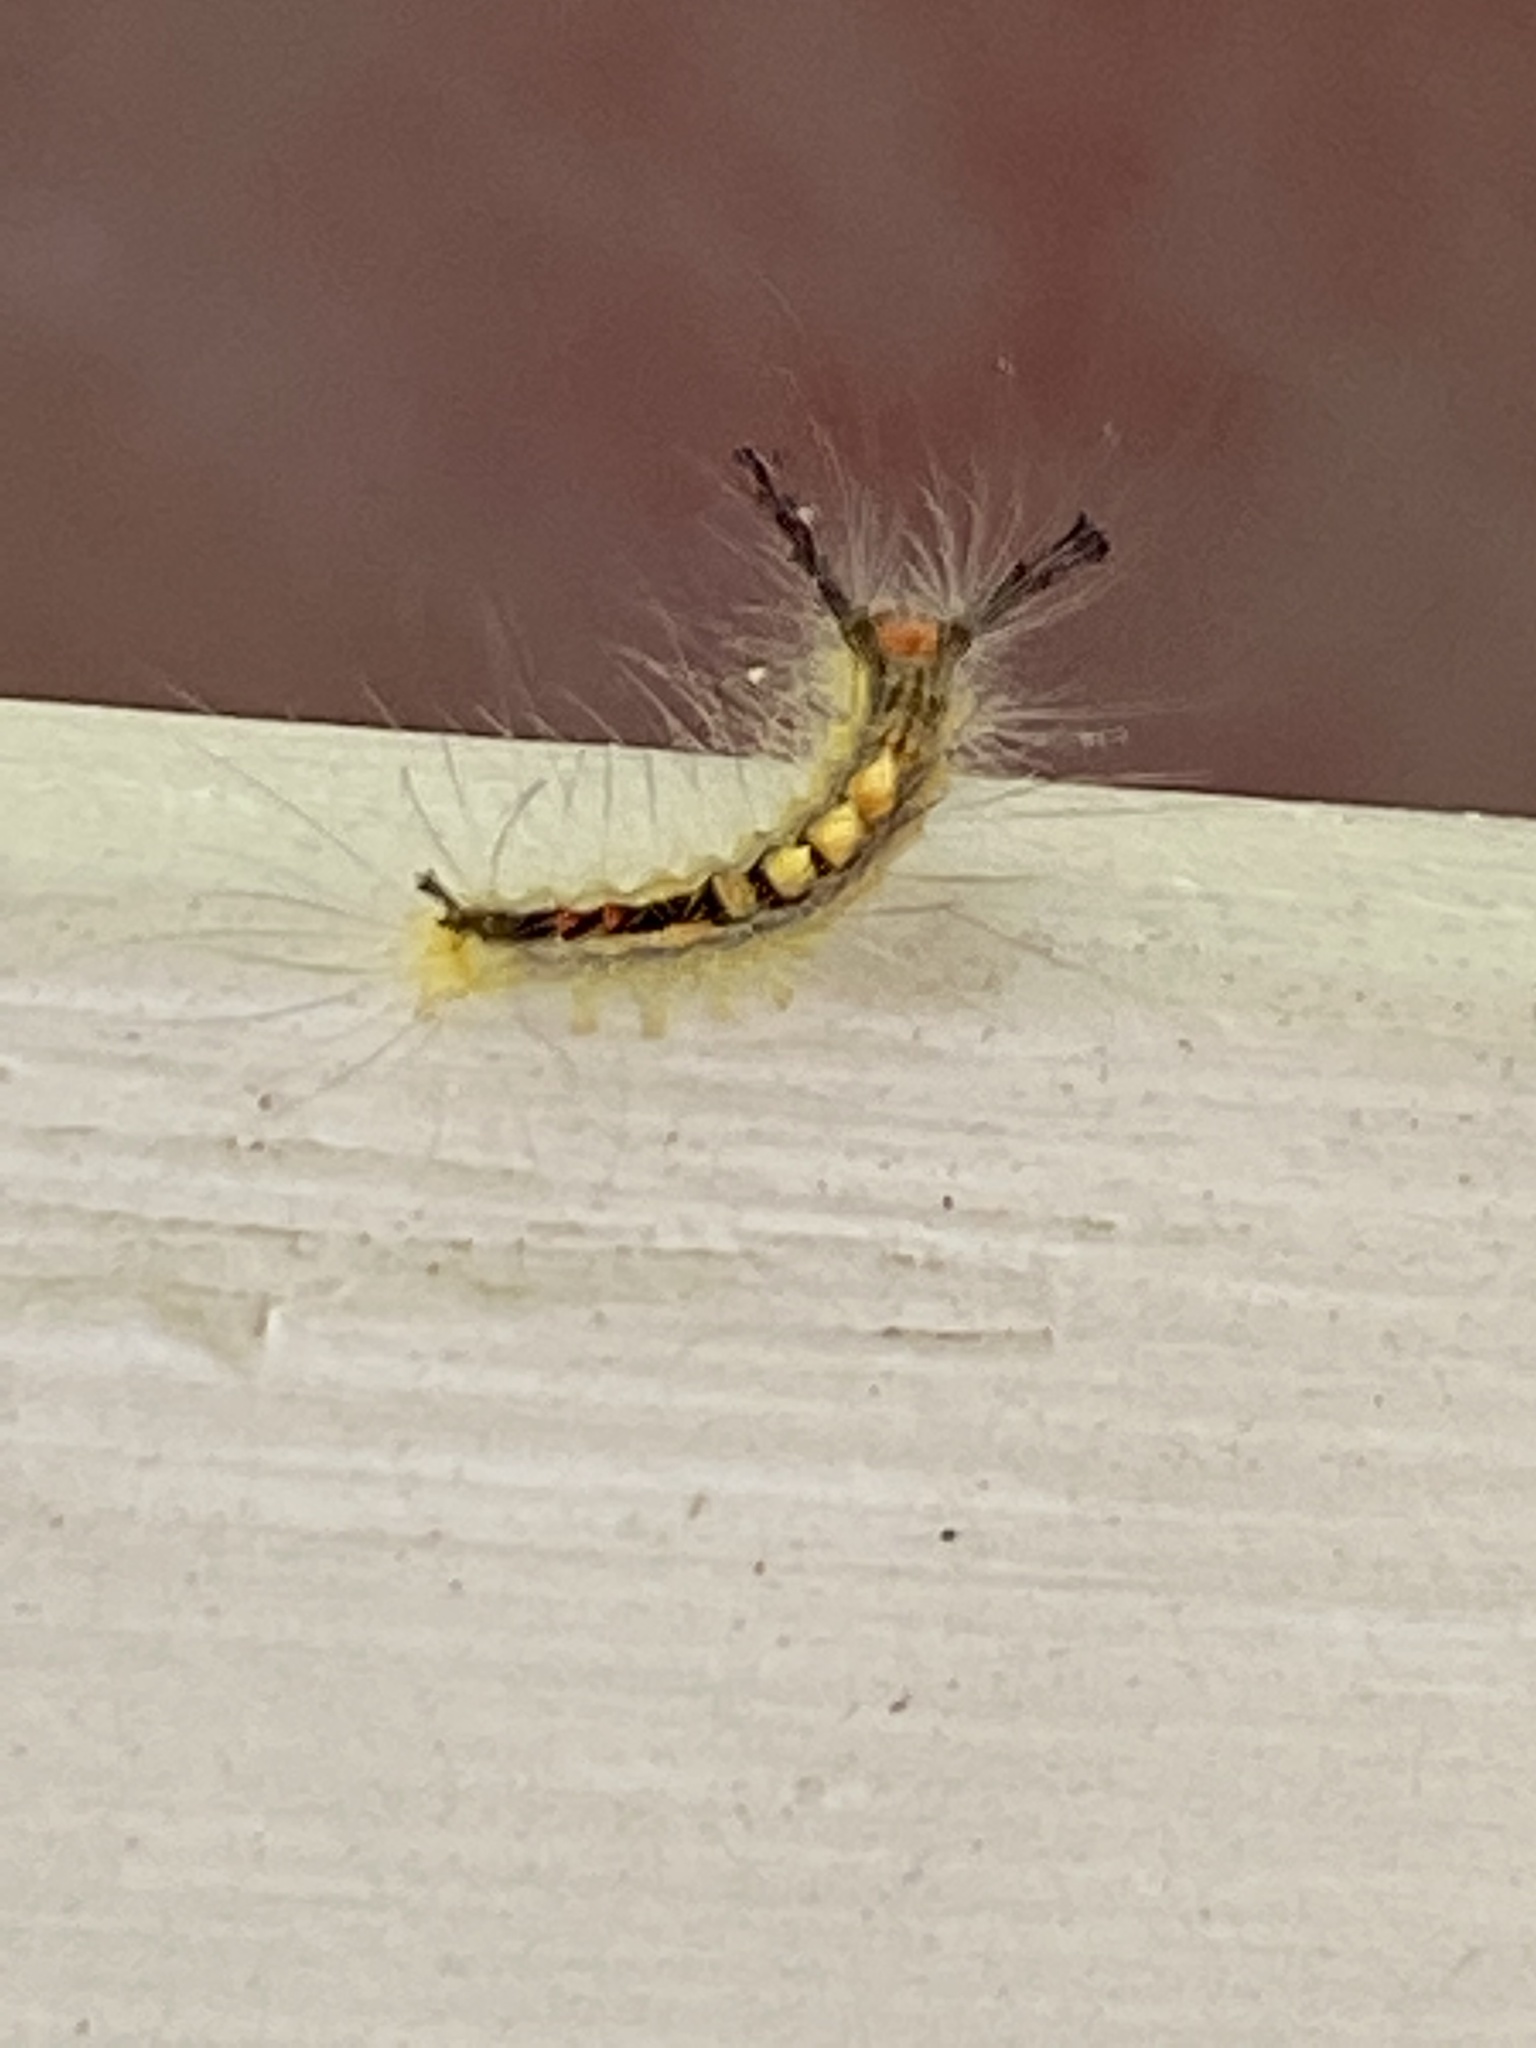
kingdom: Animalia
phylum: Arthropoda
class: Insecta
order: Lepidoptera
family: Erebidae
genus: Orgyia
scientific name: Orgyia leucostigma
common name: White-marked tussock moth
